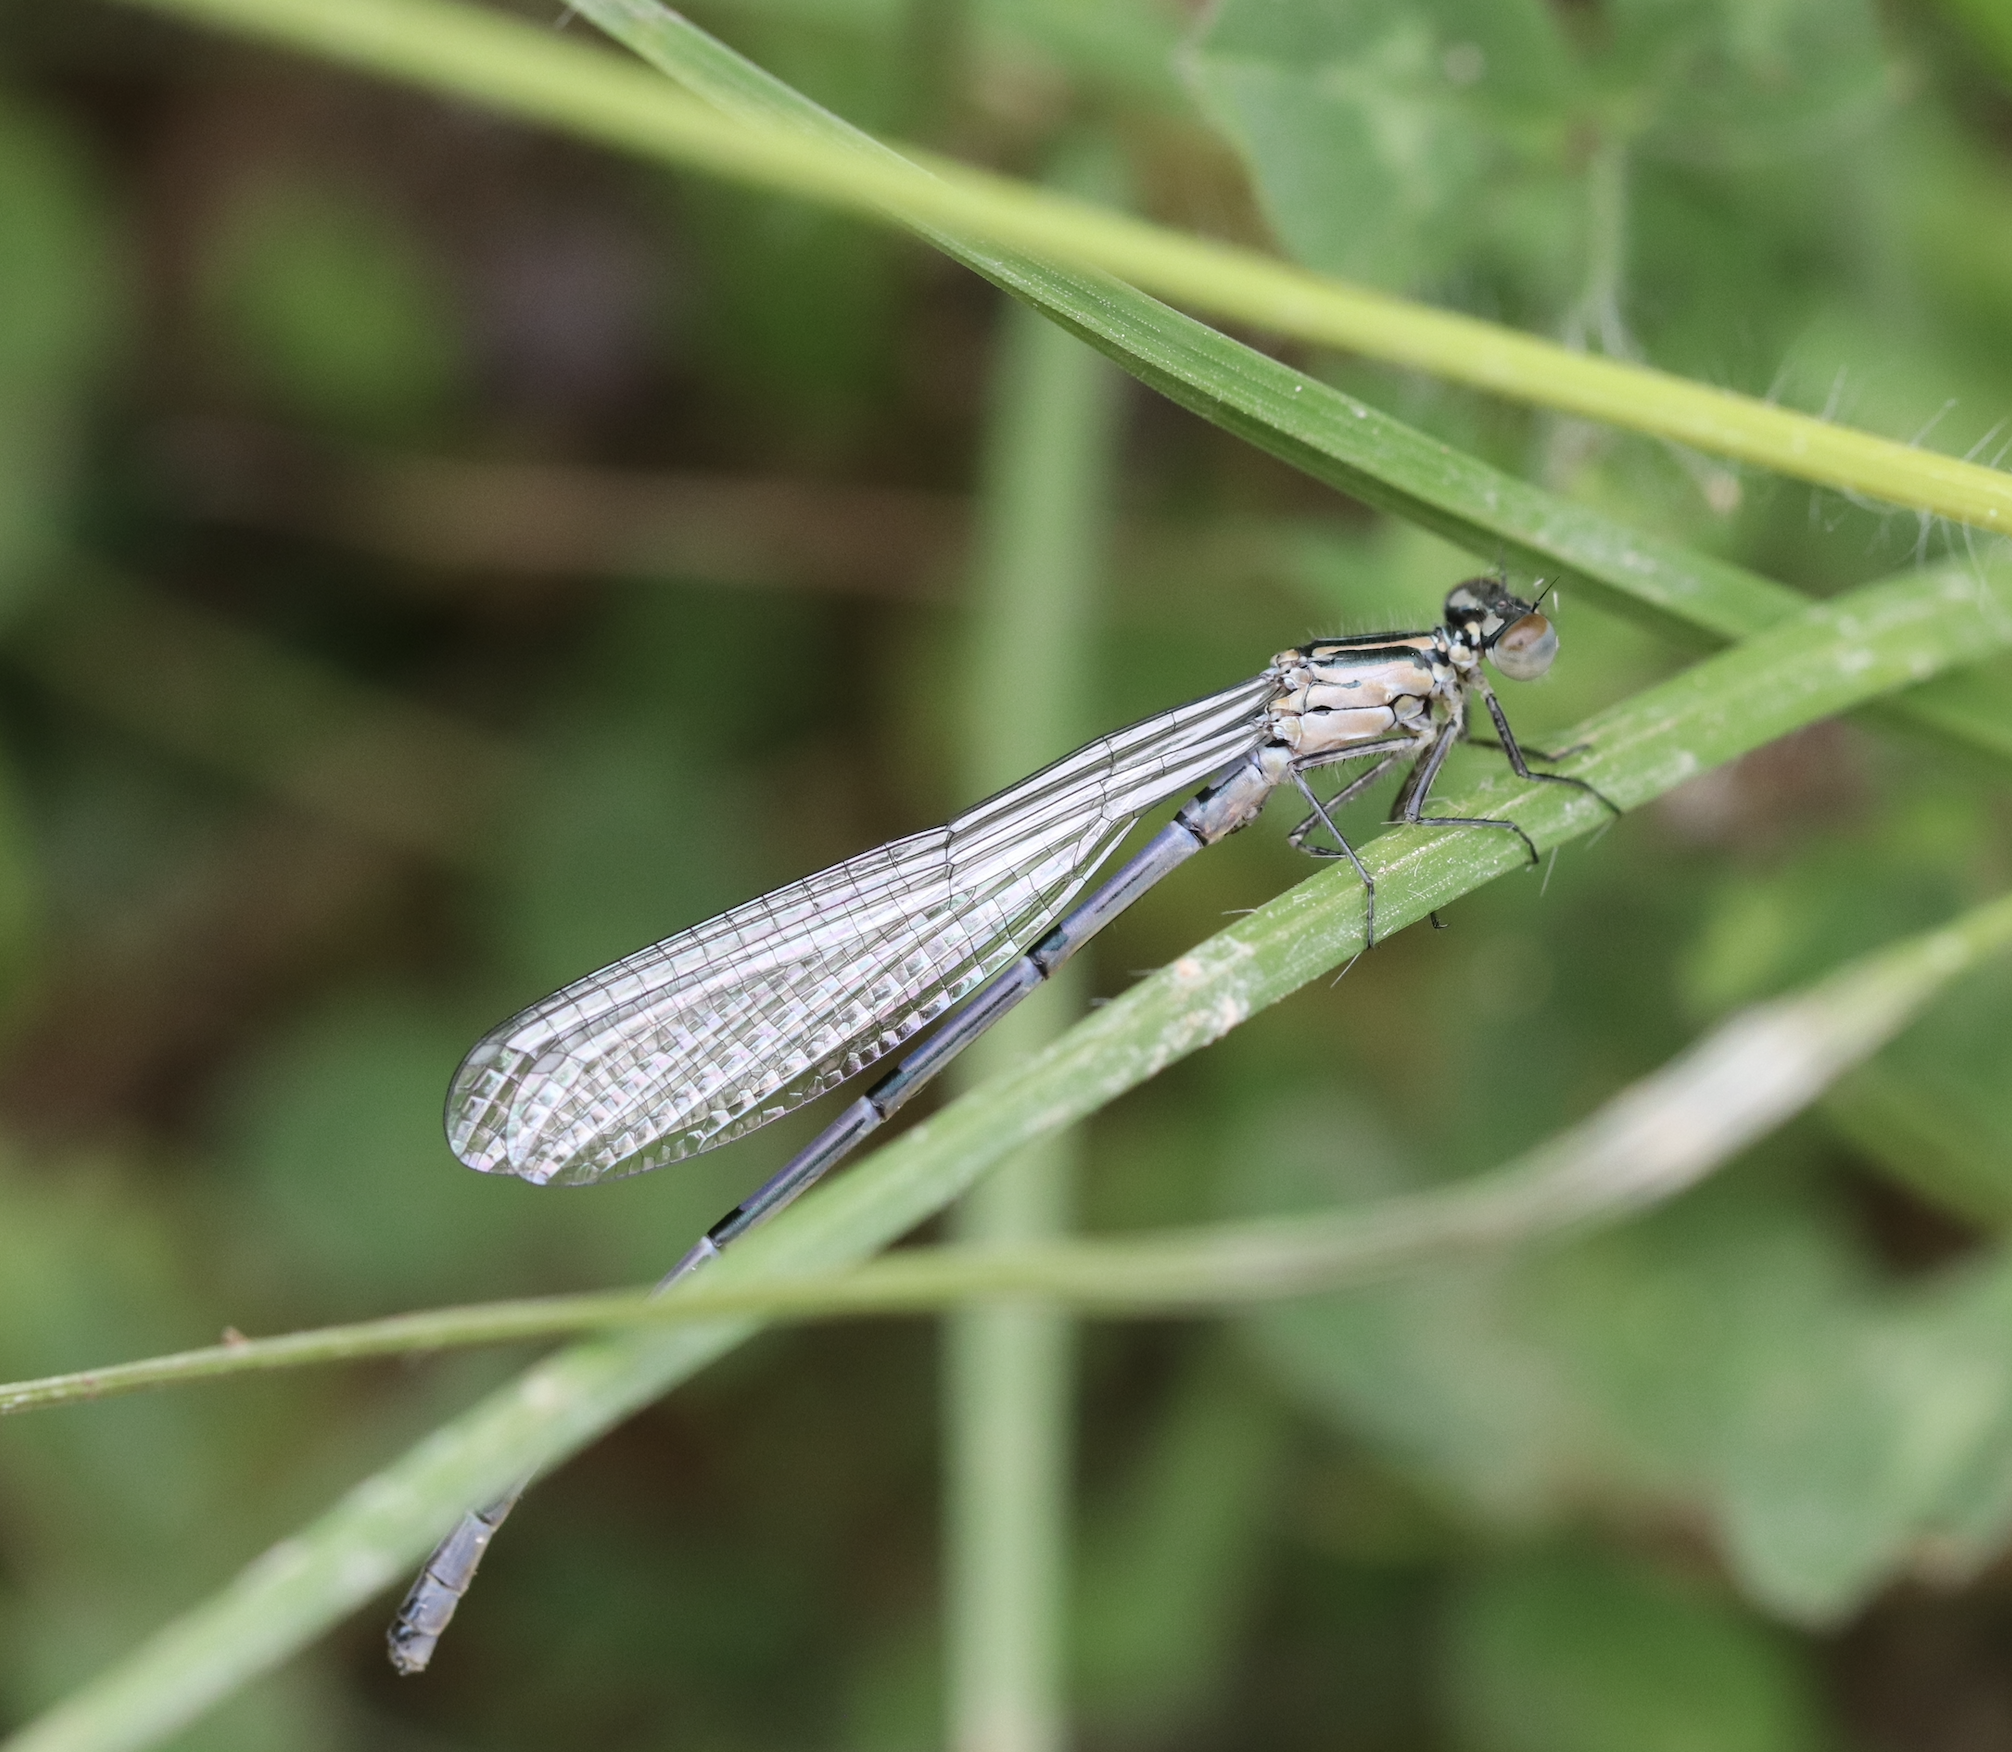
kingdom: Animalia
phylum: Arthropoda
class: Insecta
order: Odonata
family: Coenagrionidae
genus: Coenagrion
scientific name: Coenagrion puella
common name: Azure damselfly
